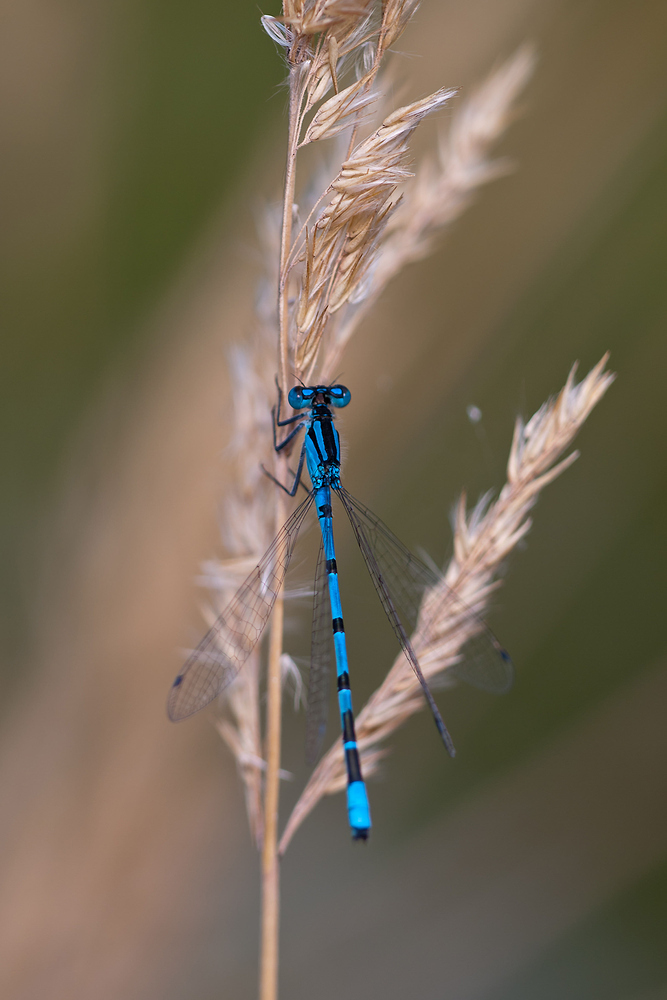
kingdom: Animalia
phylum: Arthropoda
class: Insecta
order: Odonata
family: Coenagrionidae
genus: Enallagma
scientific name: Enallagma cyathigerum
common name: Common blue damselfly
